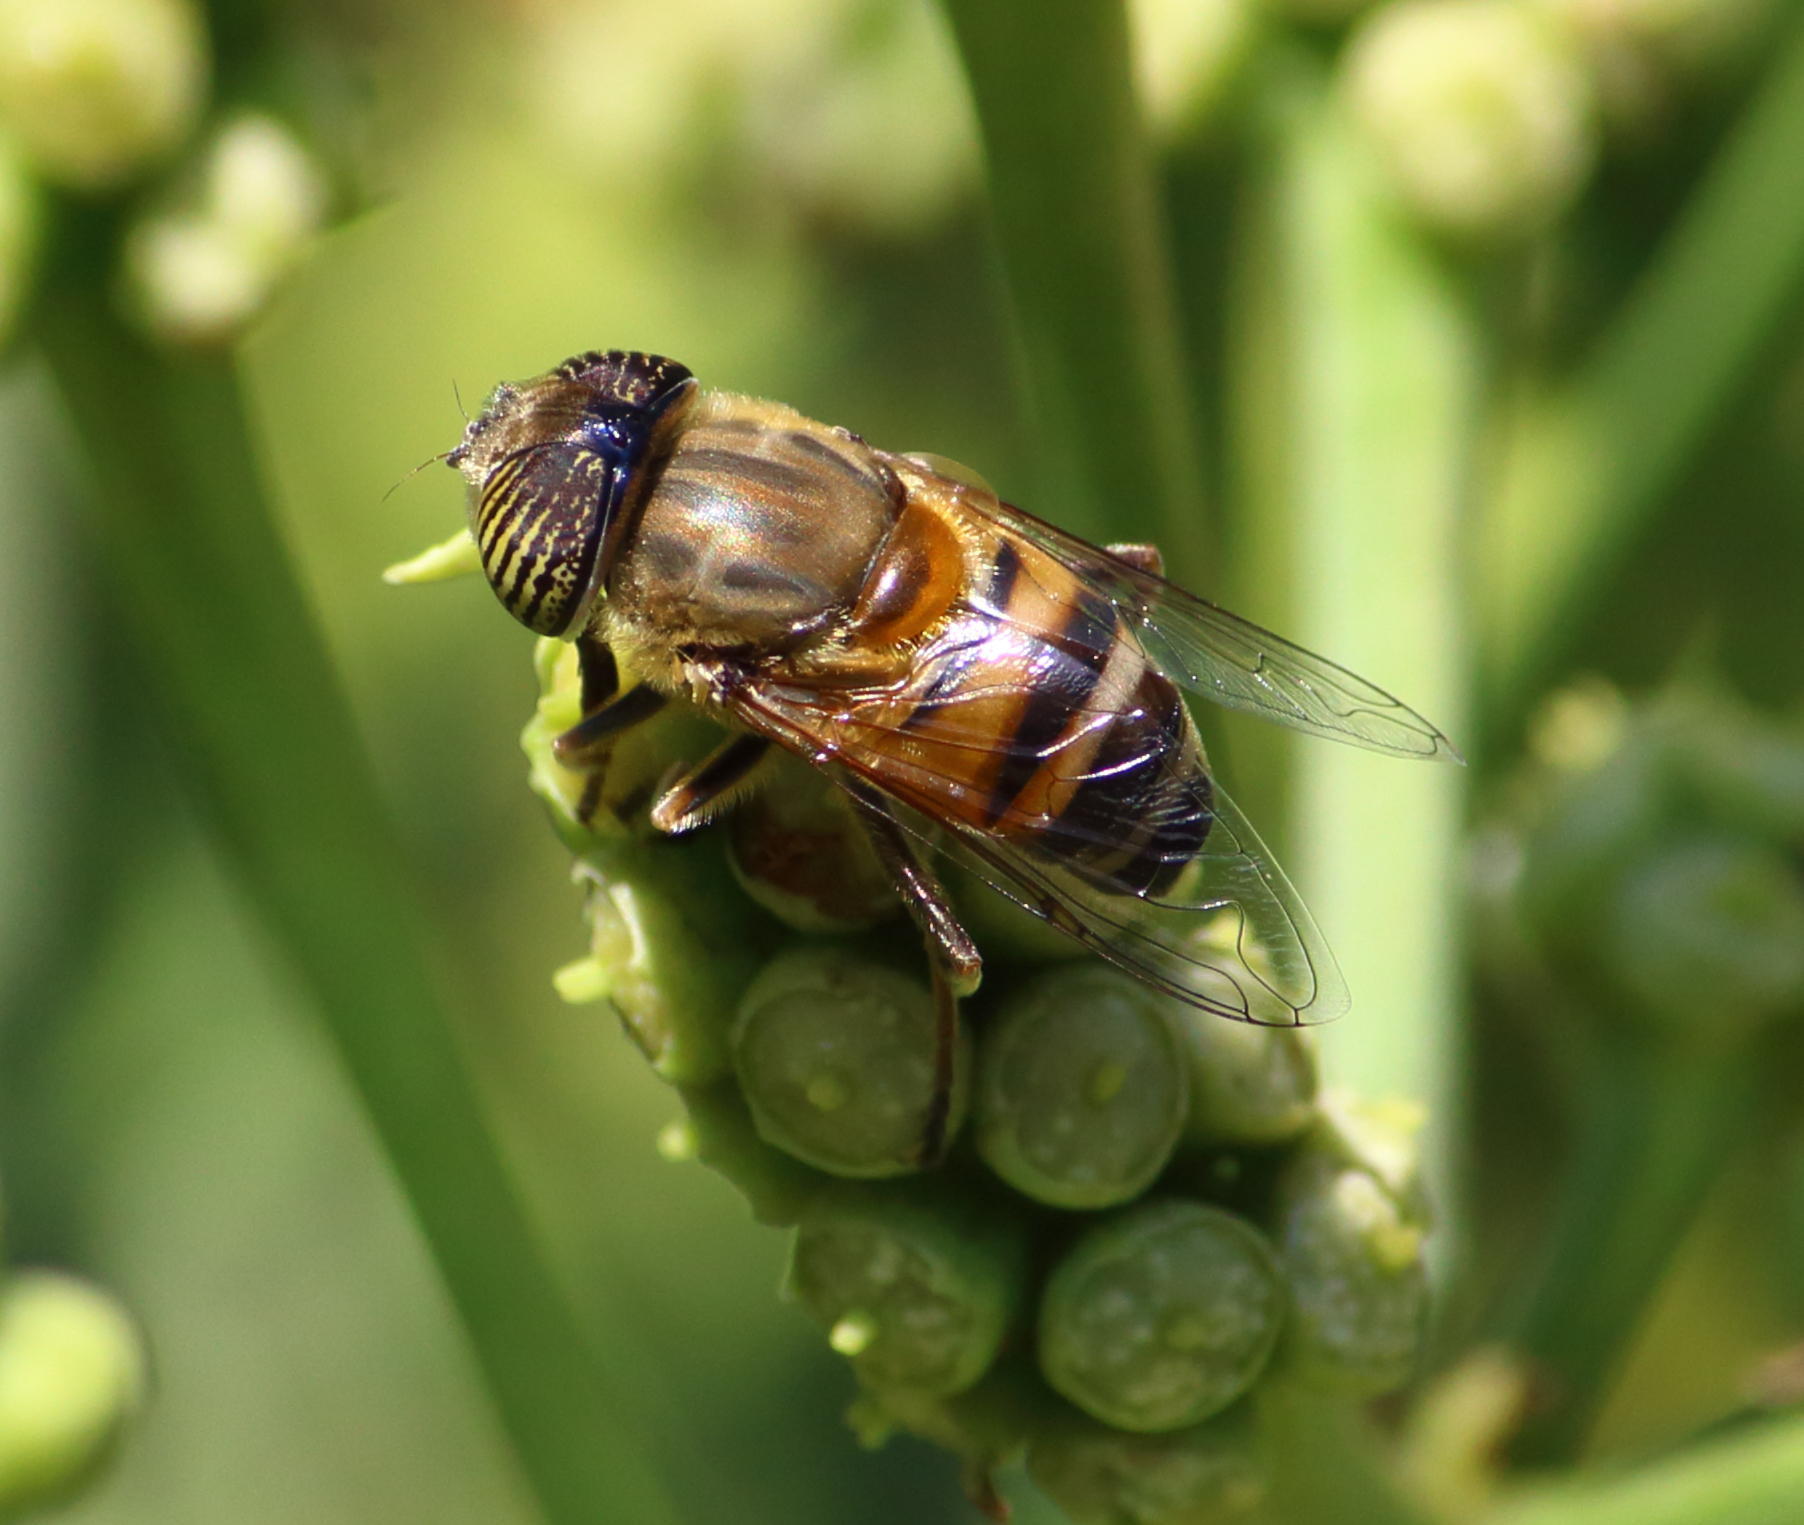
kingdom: Animalia
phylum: Arthropoda
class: Insecta
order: Diptera
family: Syrphidae
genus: Eristalinus
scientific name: Eristalinus taeniops
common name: Syrphid fly
